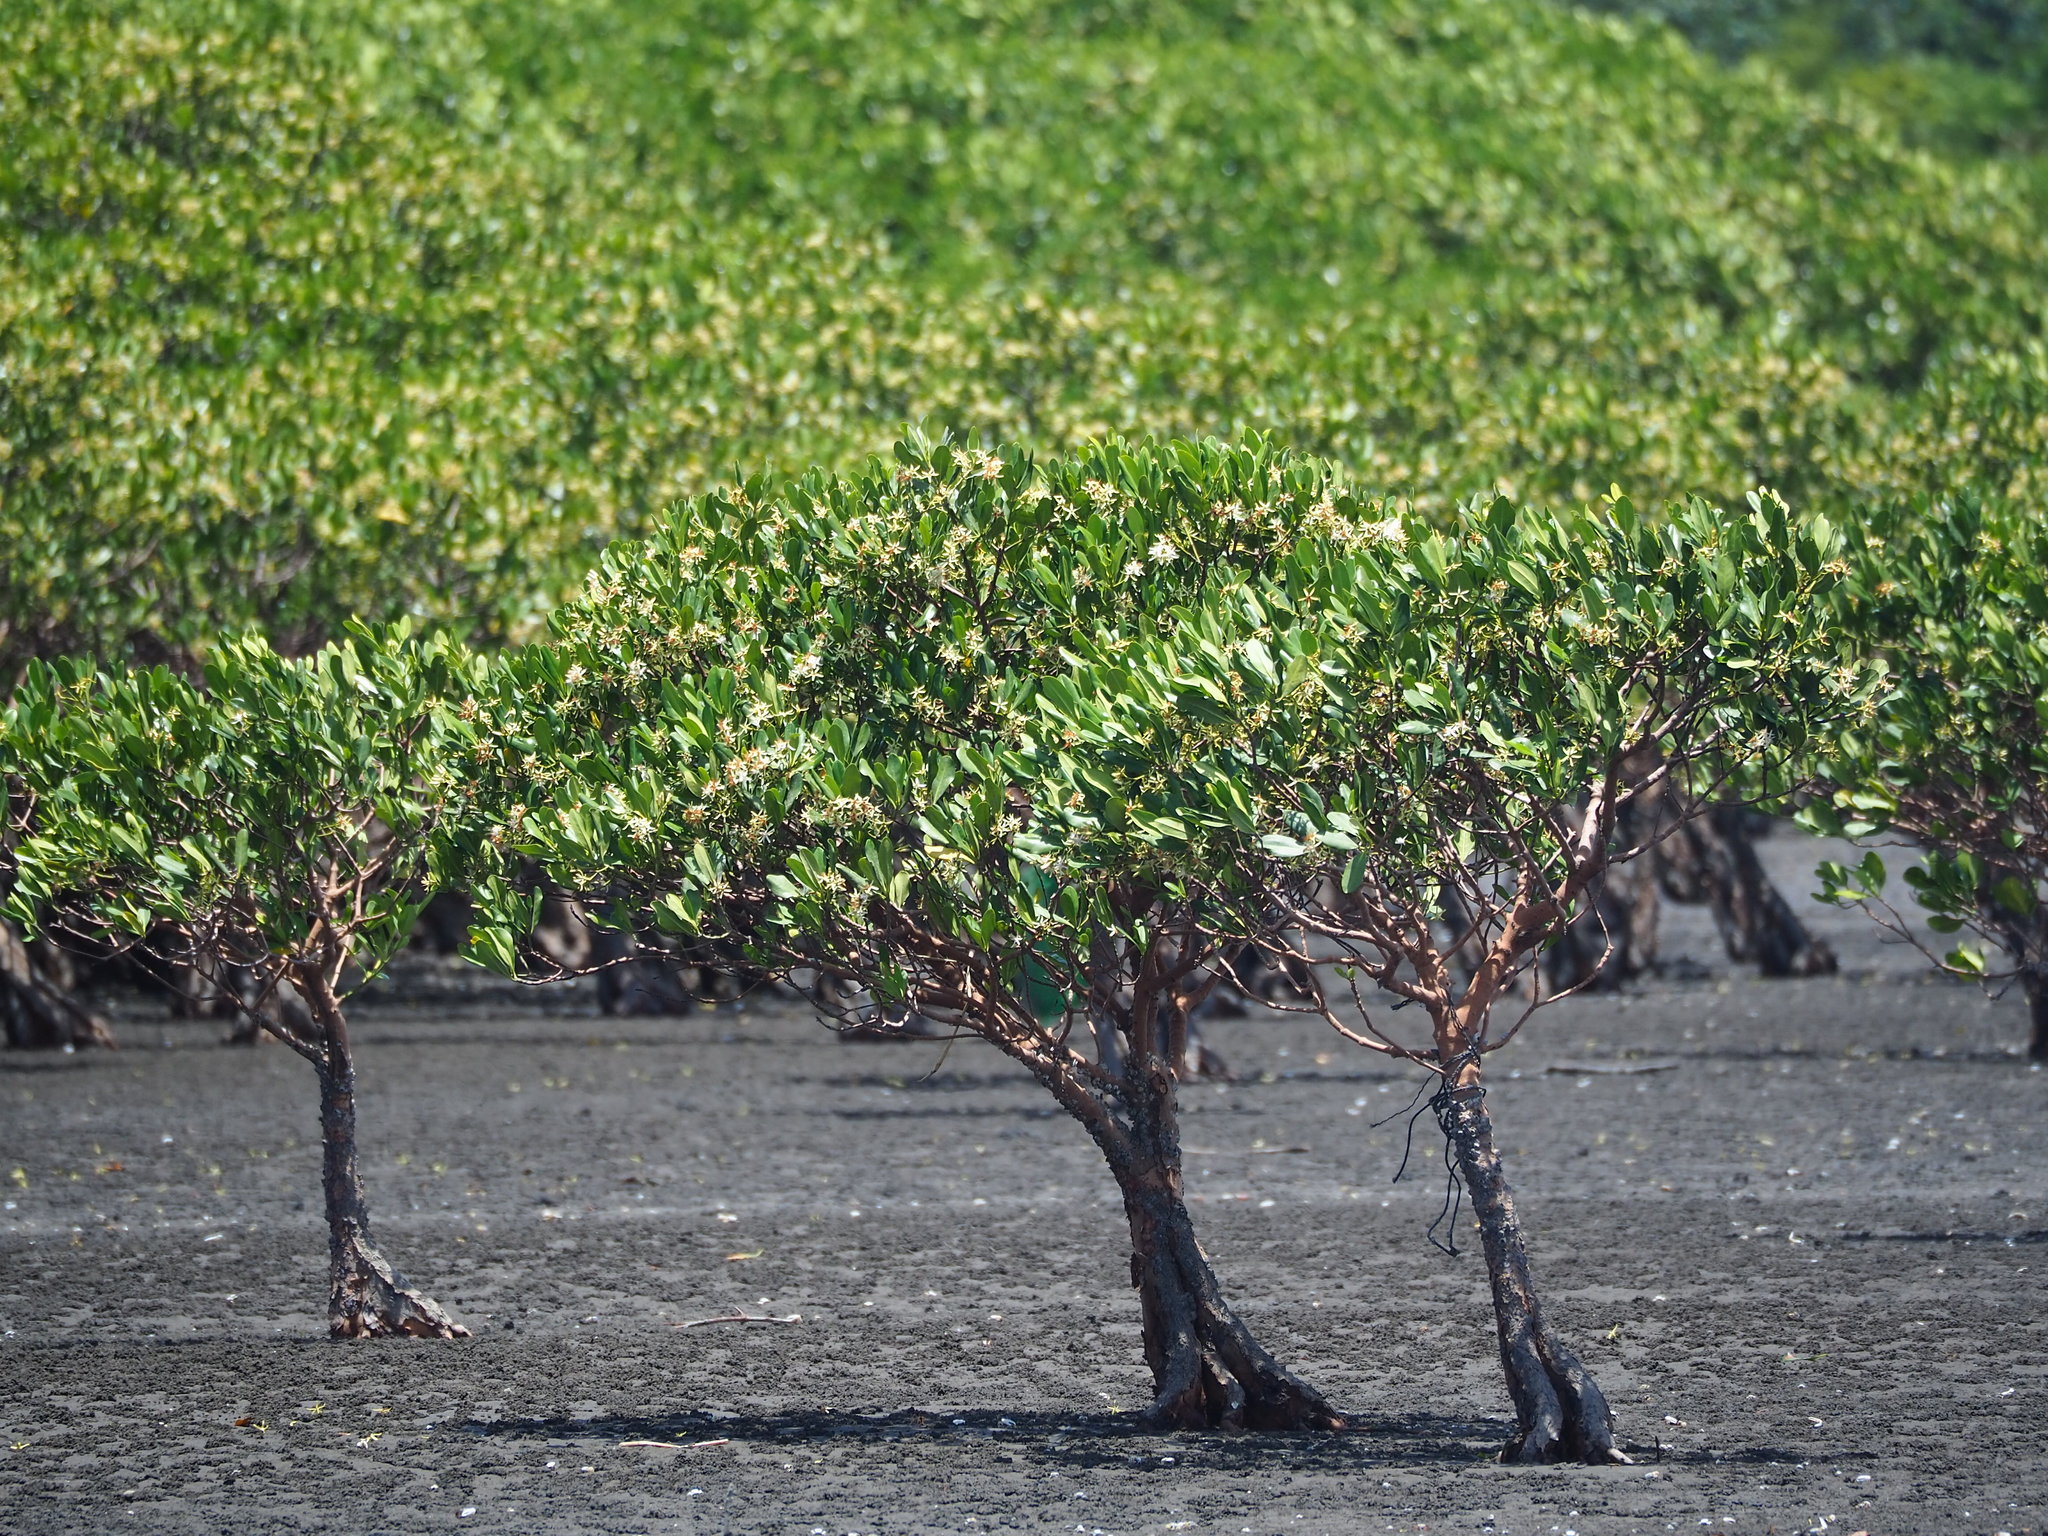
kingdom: Plantae
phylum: Tracheophyta
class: Magnoliopsida
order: Malpighiales
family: Rhizophoraceae
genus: Kandelia
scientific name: Kandelia obovata
